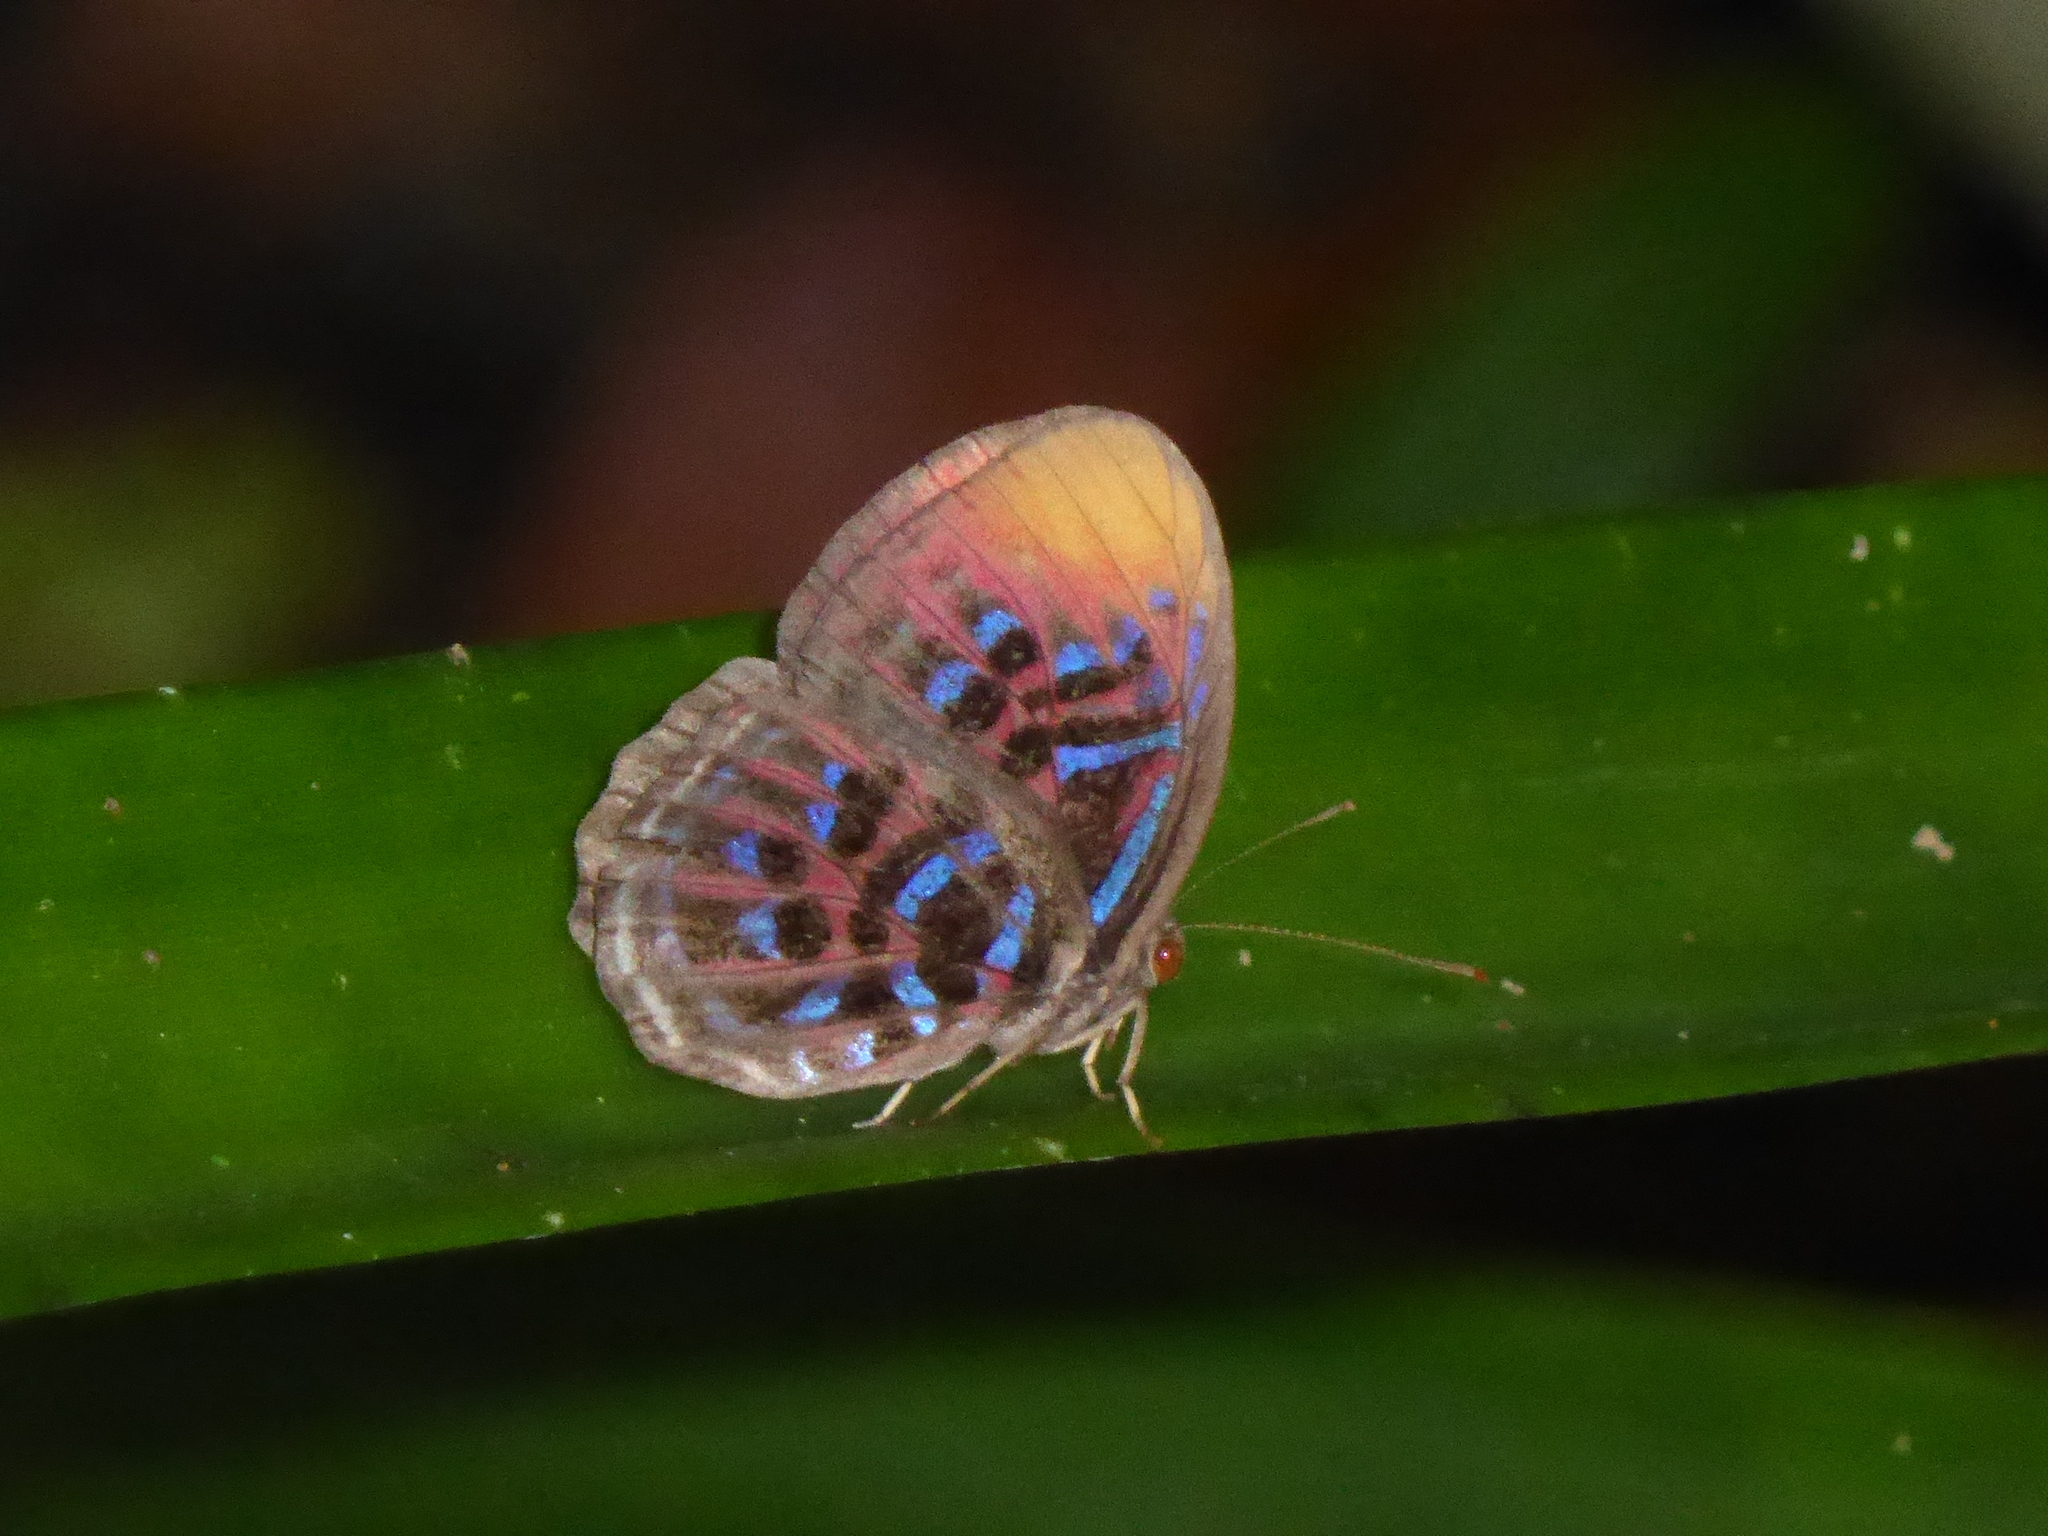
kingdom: Animalia
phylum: Arthropoda
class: Insecta
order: Lepidoptera
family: Riodinidae
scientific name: Riodinidae
